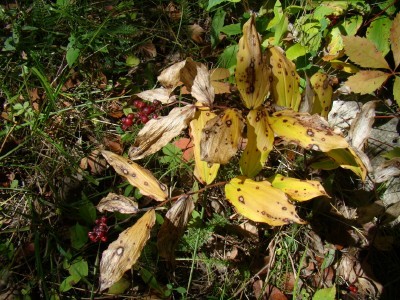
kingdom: Plantae
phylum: Tracheophyta
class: Liliopsida
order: Asparagales
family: Asparagaceae
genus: Maianthemum
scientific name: Maianthemum racemosum
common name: False spikenard
